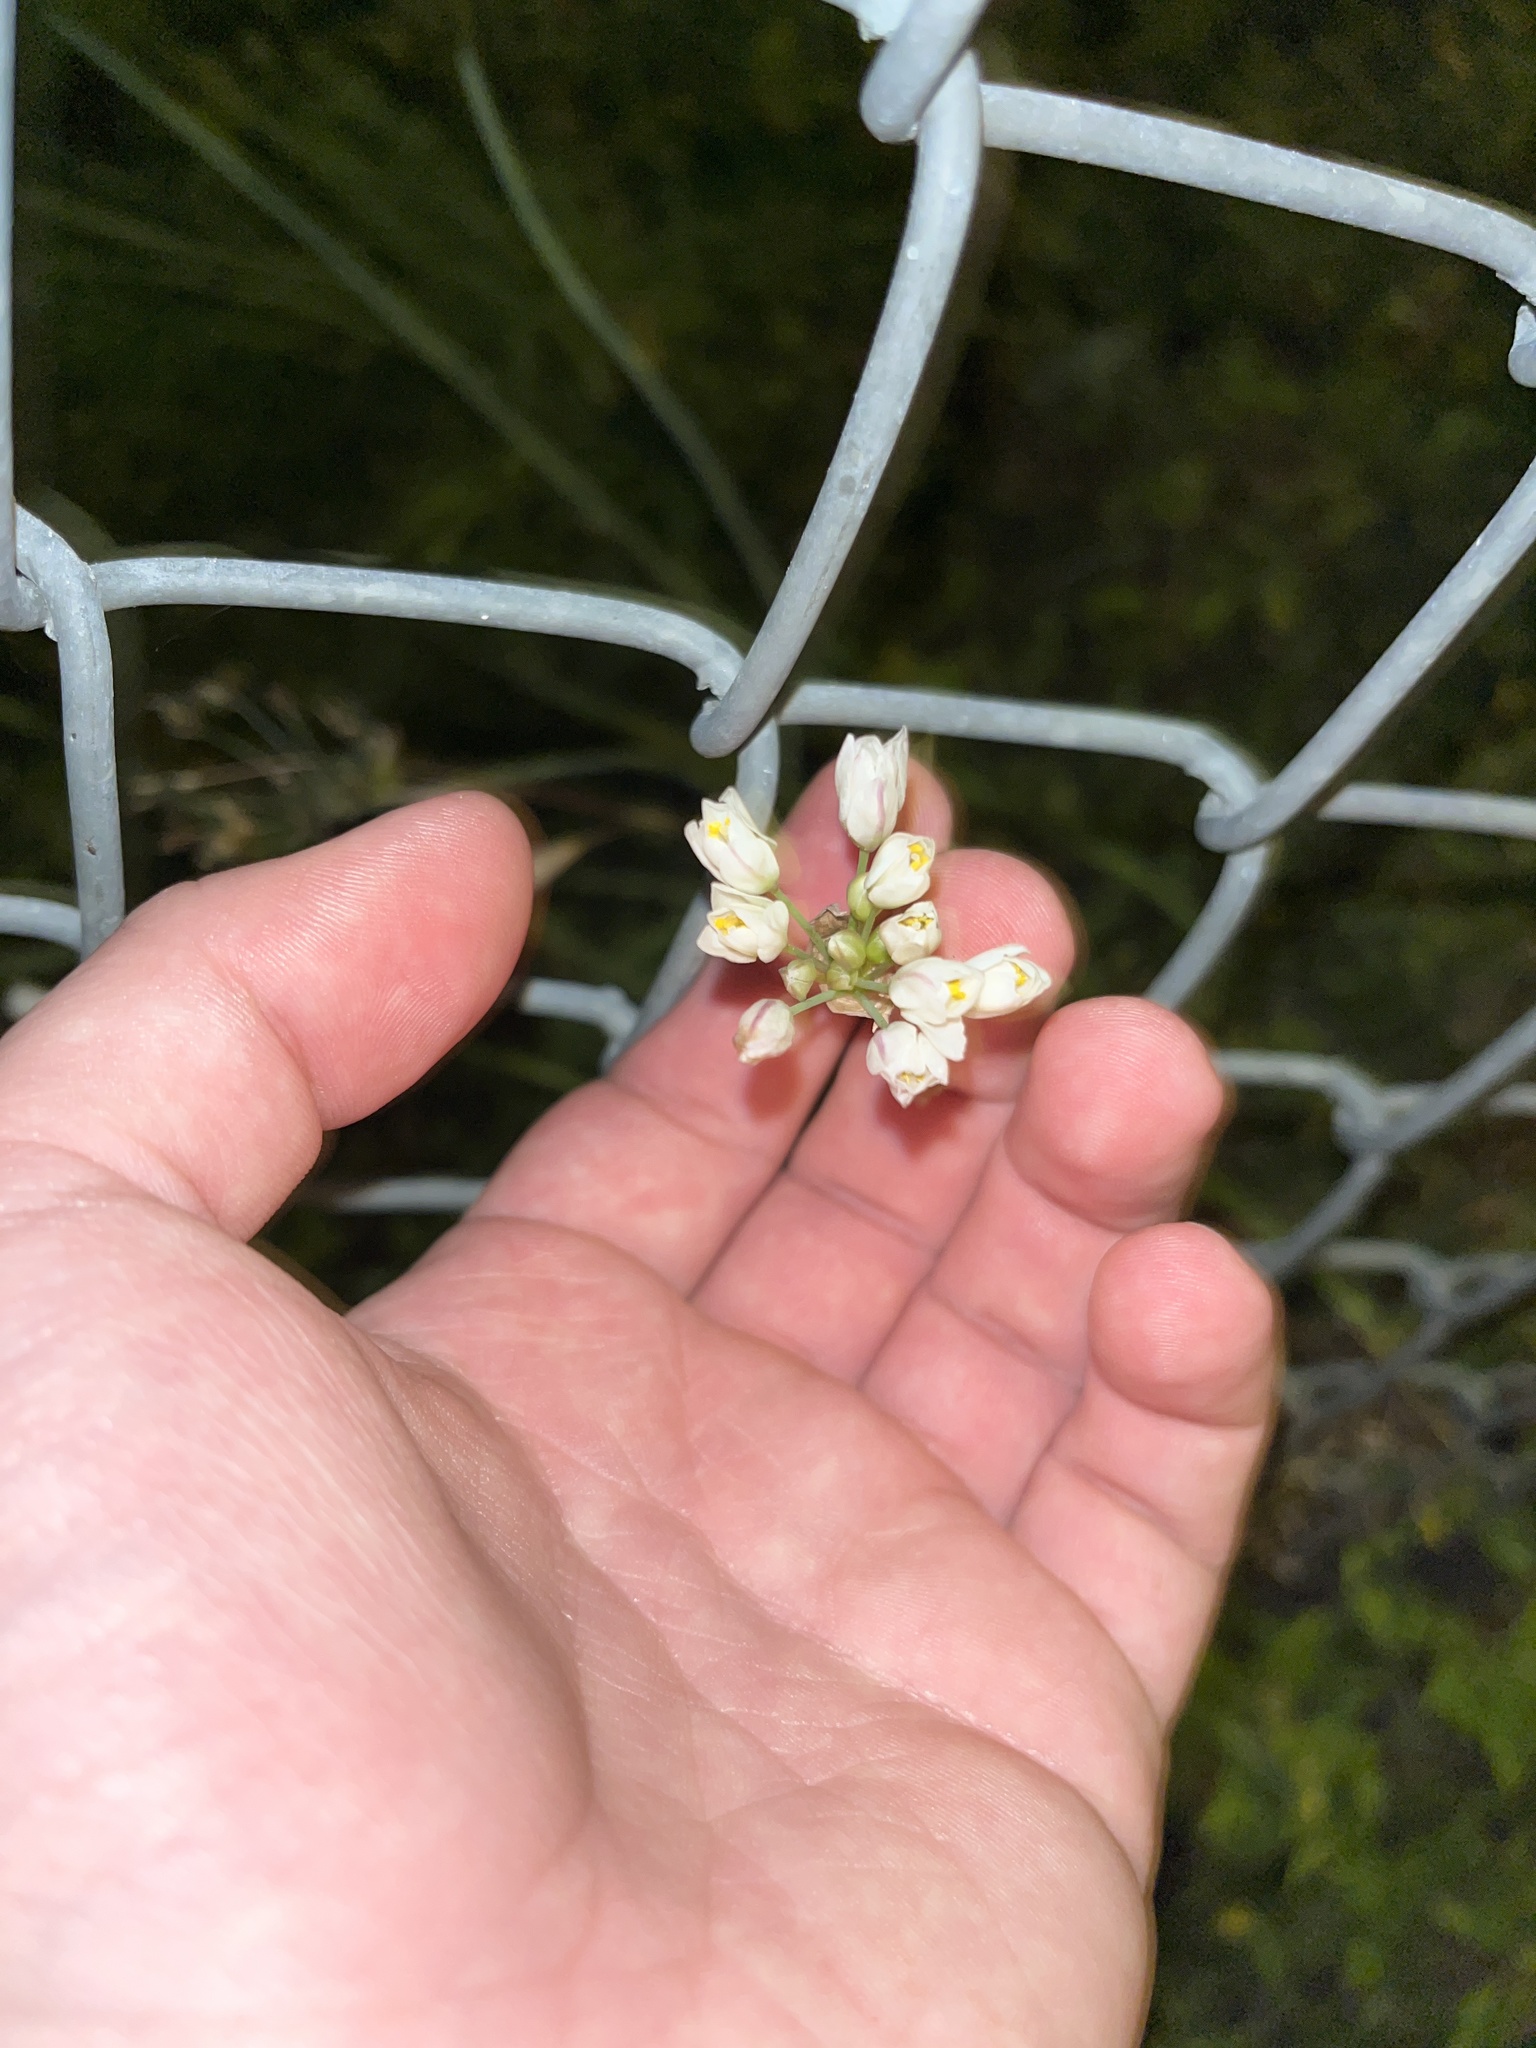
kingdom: Plantae
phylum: Tracheophyta
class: Liliopsida
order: Asparagales
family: Amaryllidaceae
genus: Nothoscordum
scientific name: Nothoscordum gracile
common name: Slender false garlic
